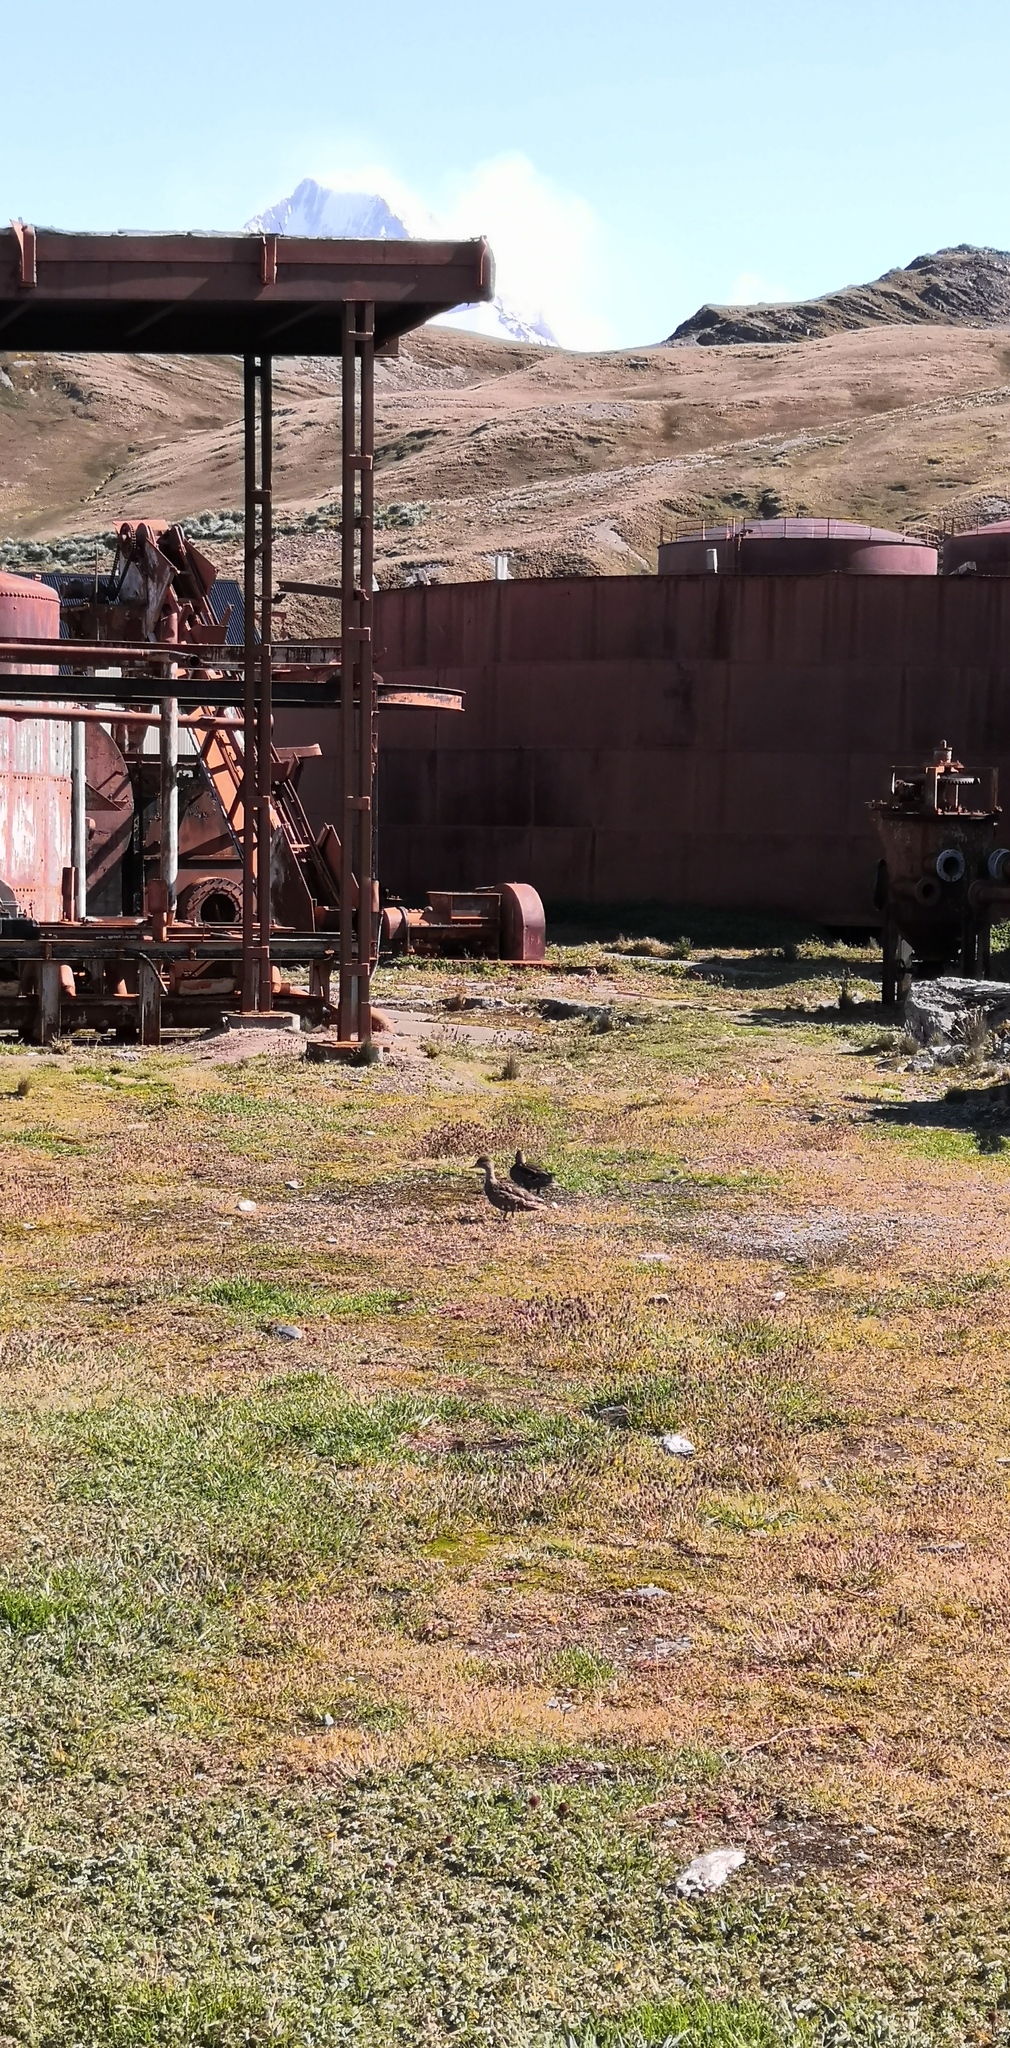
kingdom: Animalia
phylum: Chordata
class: Aves
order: Anseriformes
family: Anatidae
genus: Anas
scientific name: Anas georgica
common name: Yellow-billed pintail
